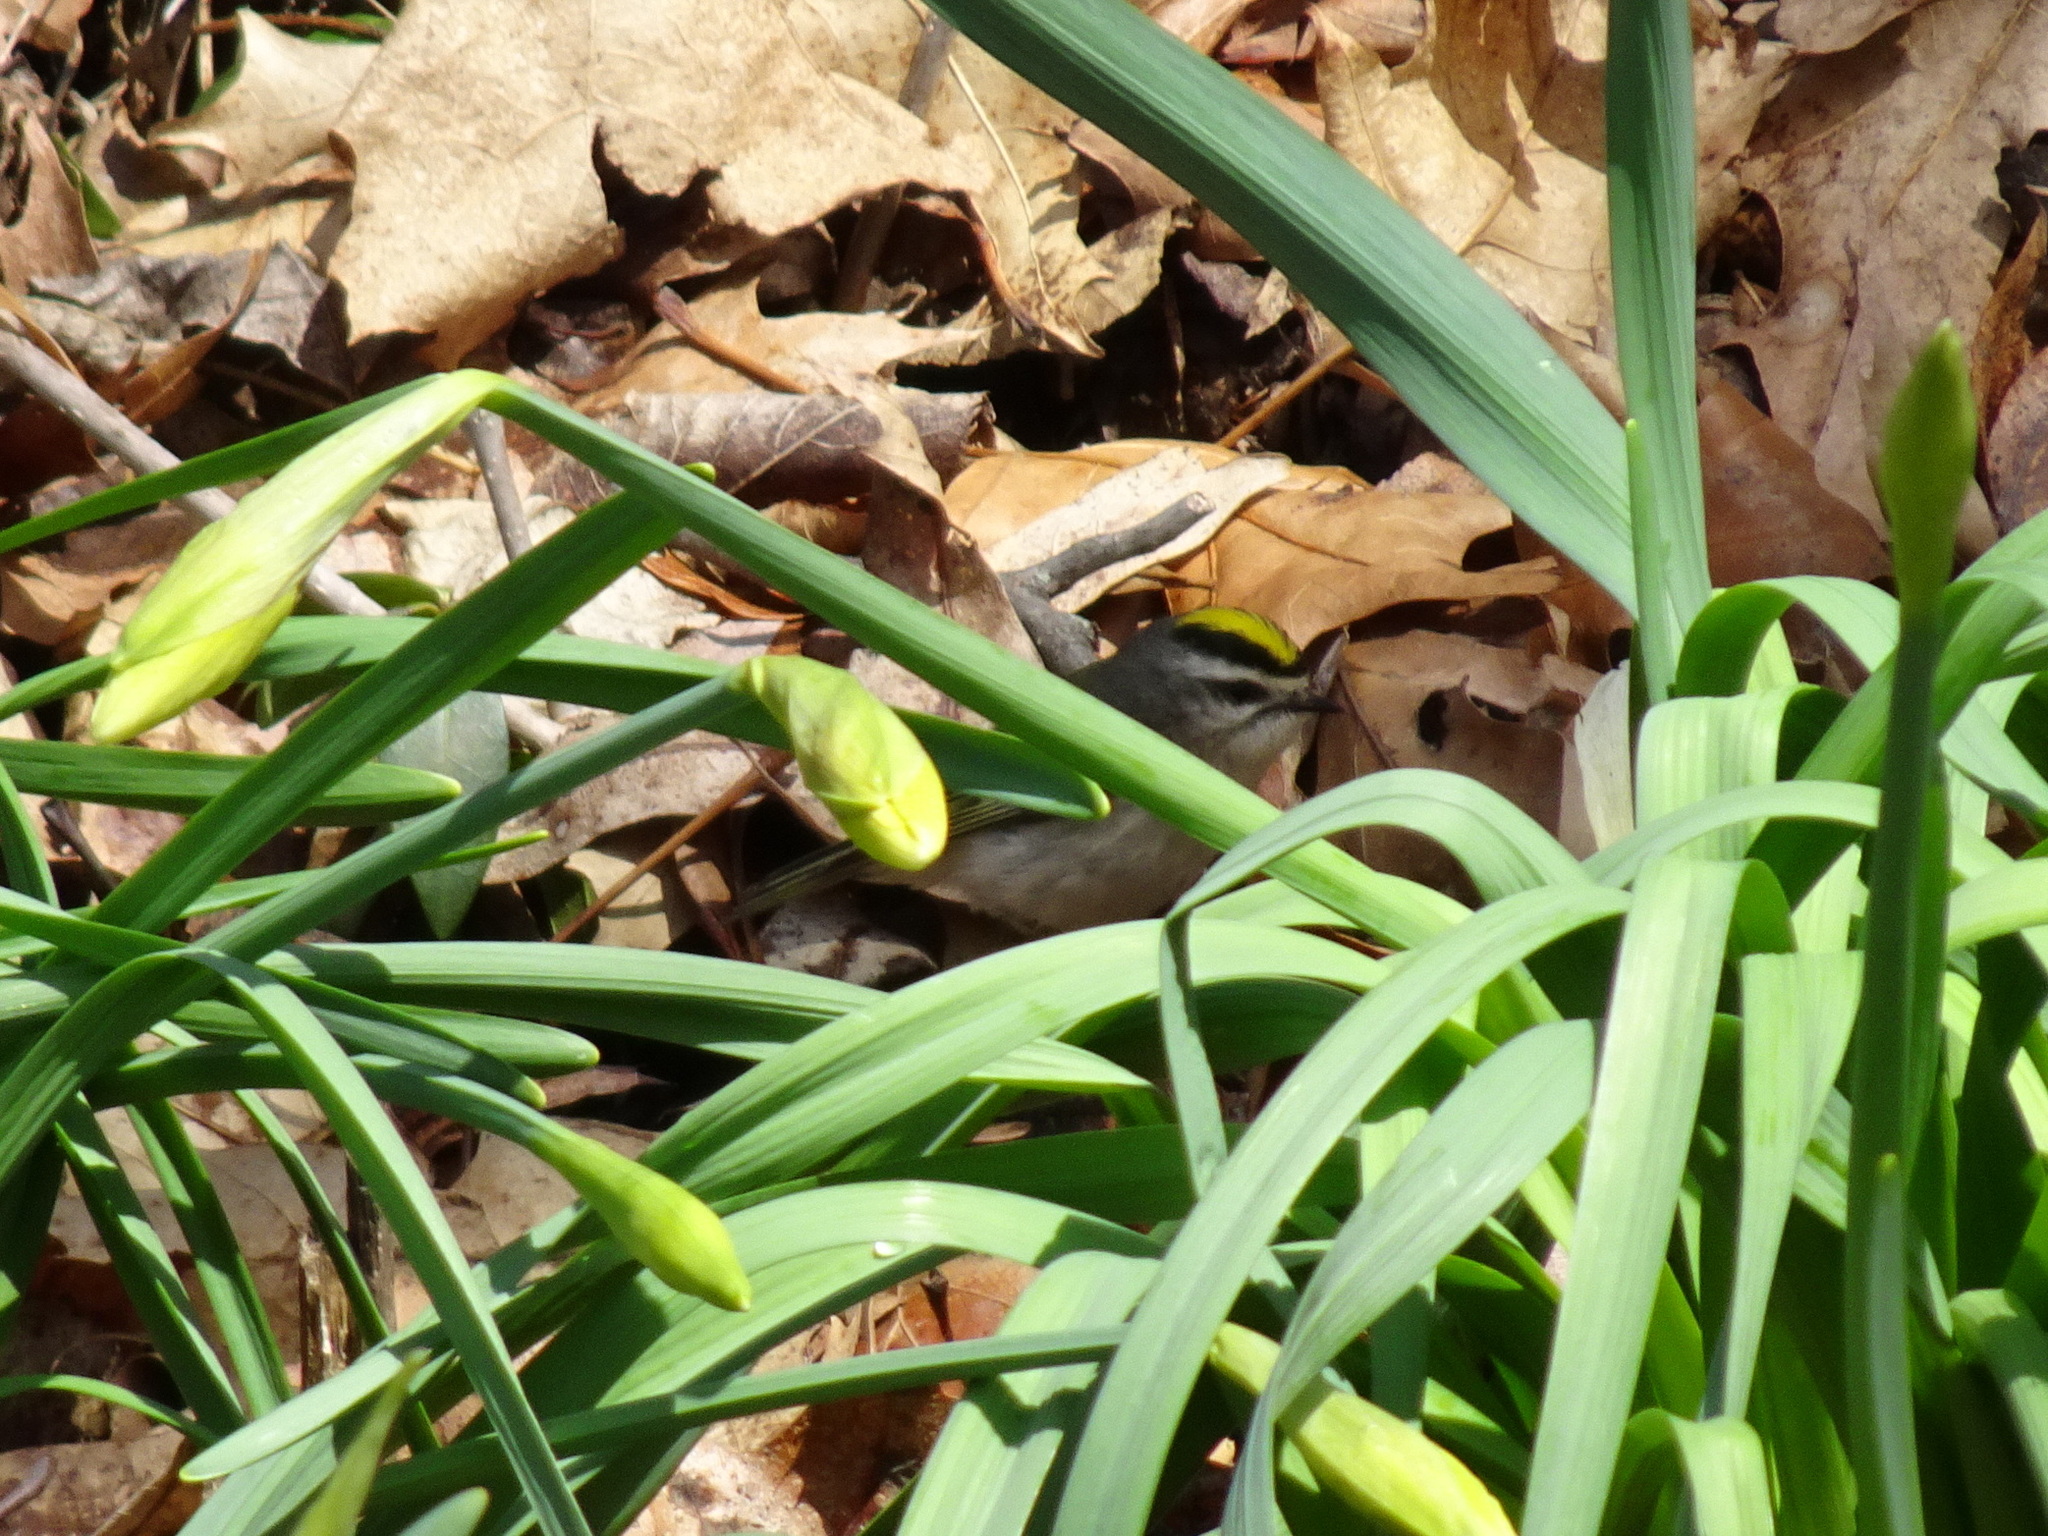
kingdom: Animalia
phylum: Chordata
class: Aves
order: Passeriformes
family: Regulidae
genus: Regulus
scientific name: Regulus satrapa
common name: Golden-crowned kinglet
